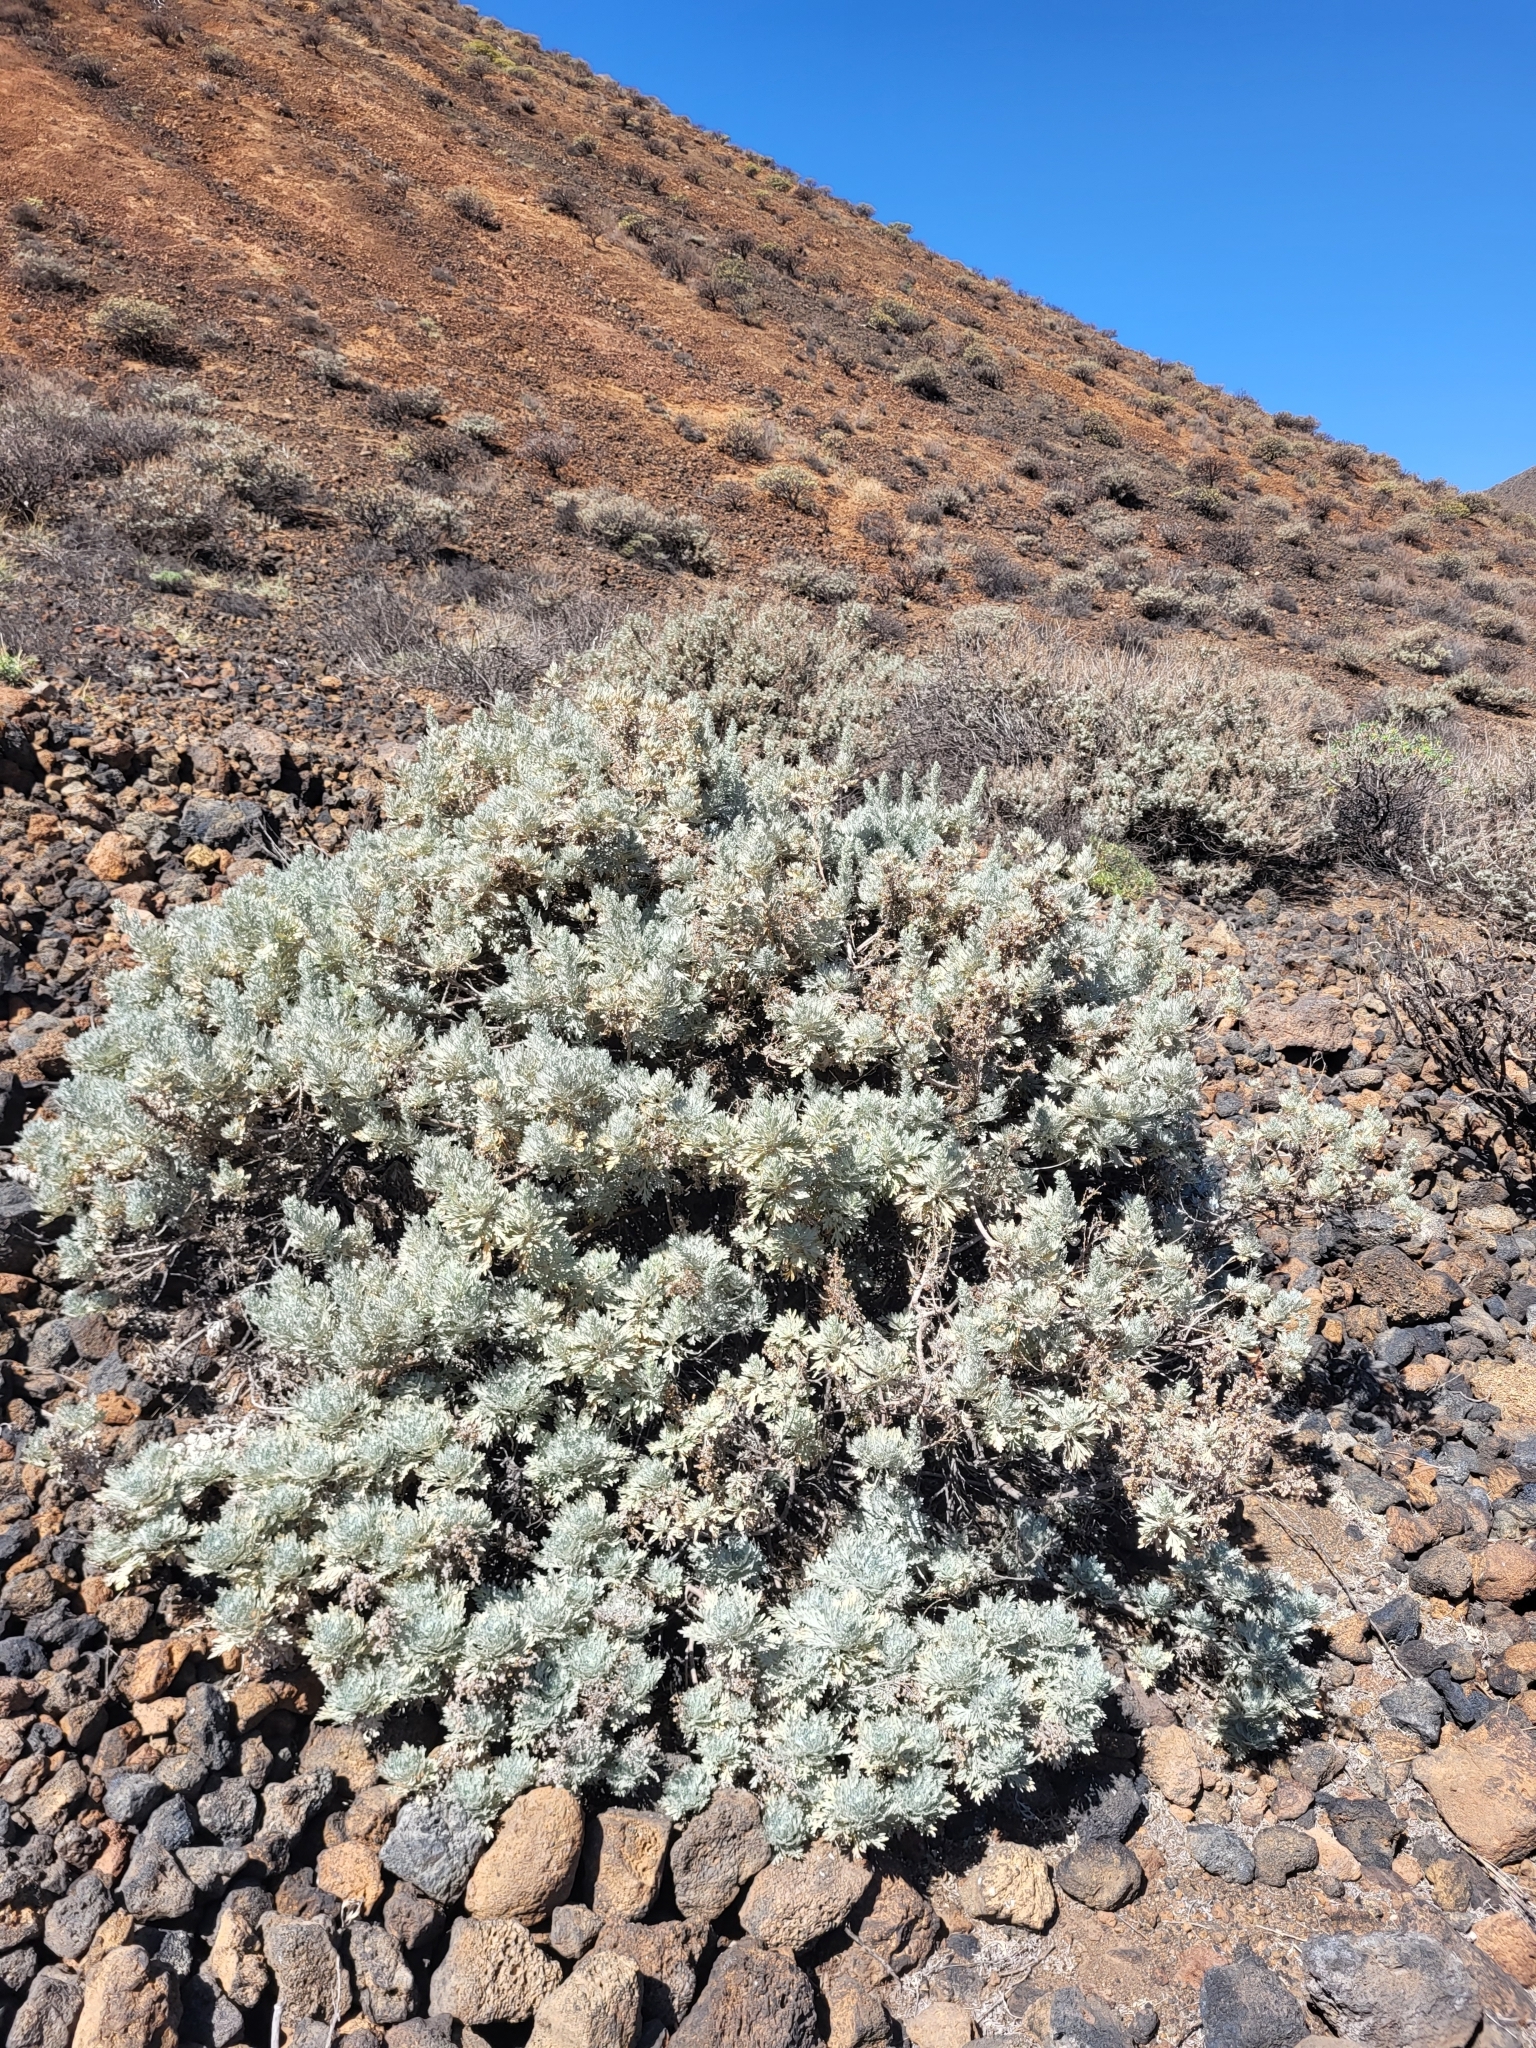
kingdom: Plantae
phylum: Tracheophyta
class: Magnoliopsida
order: Asterales
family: Asteraceae
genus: Artemisia
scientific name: Artemisia gorgonum
